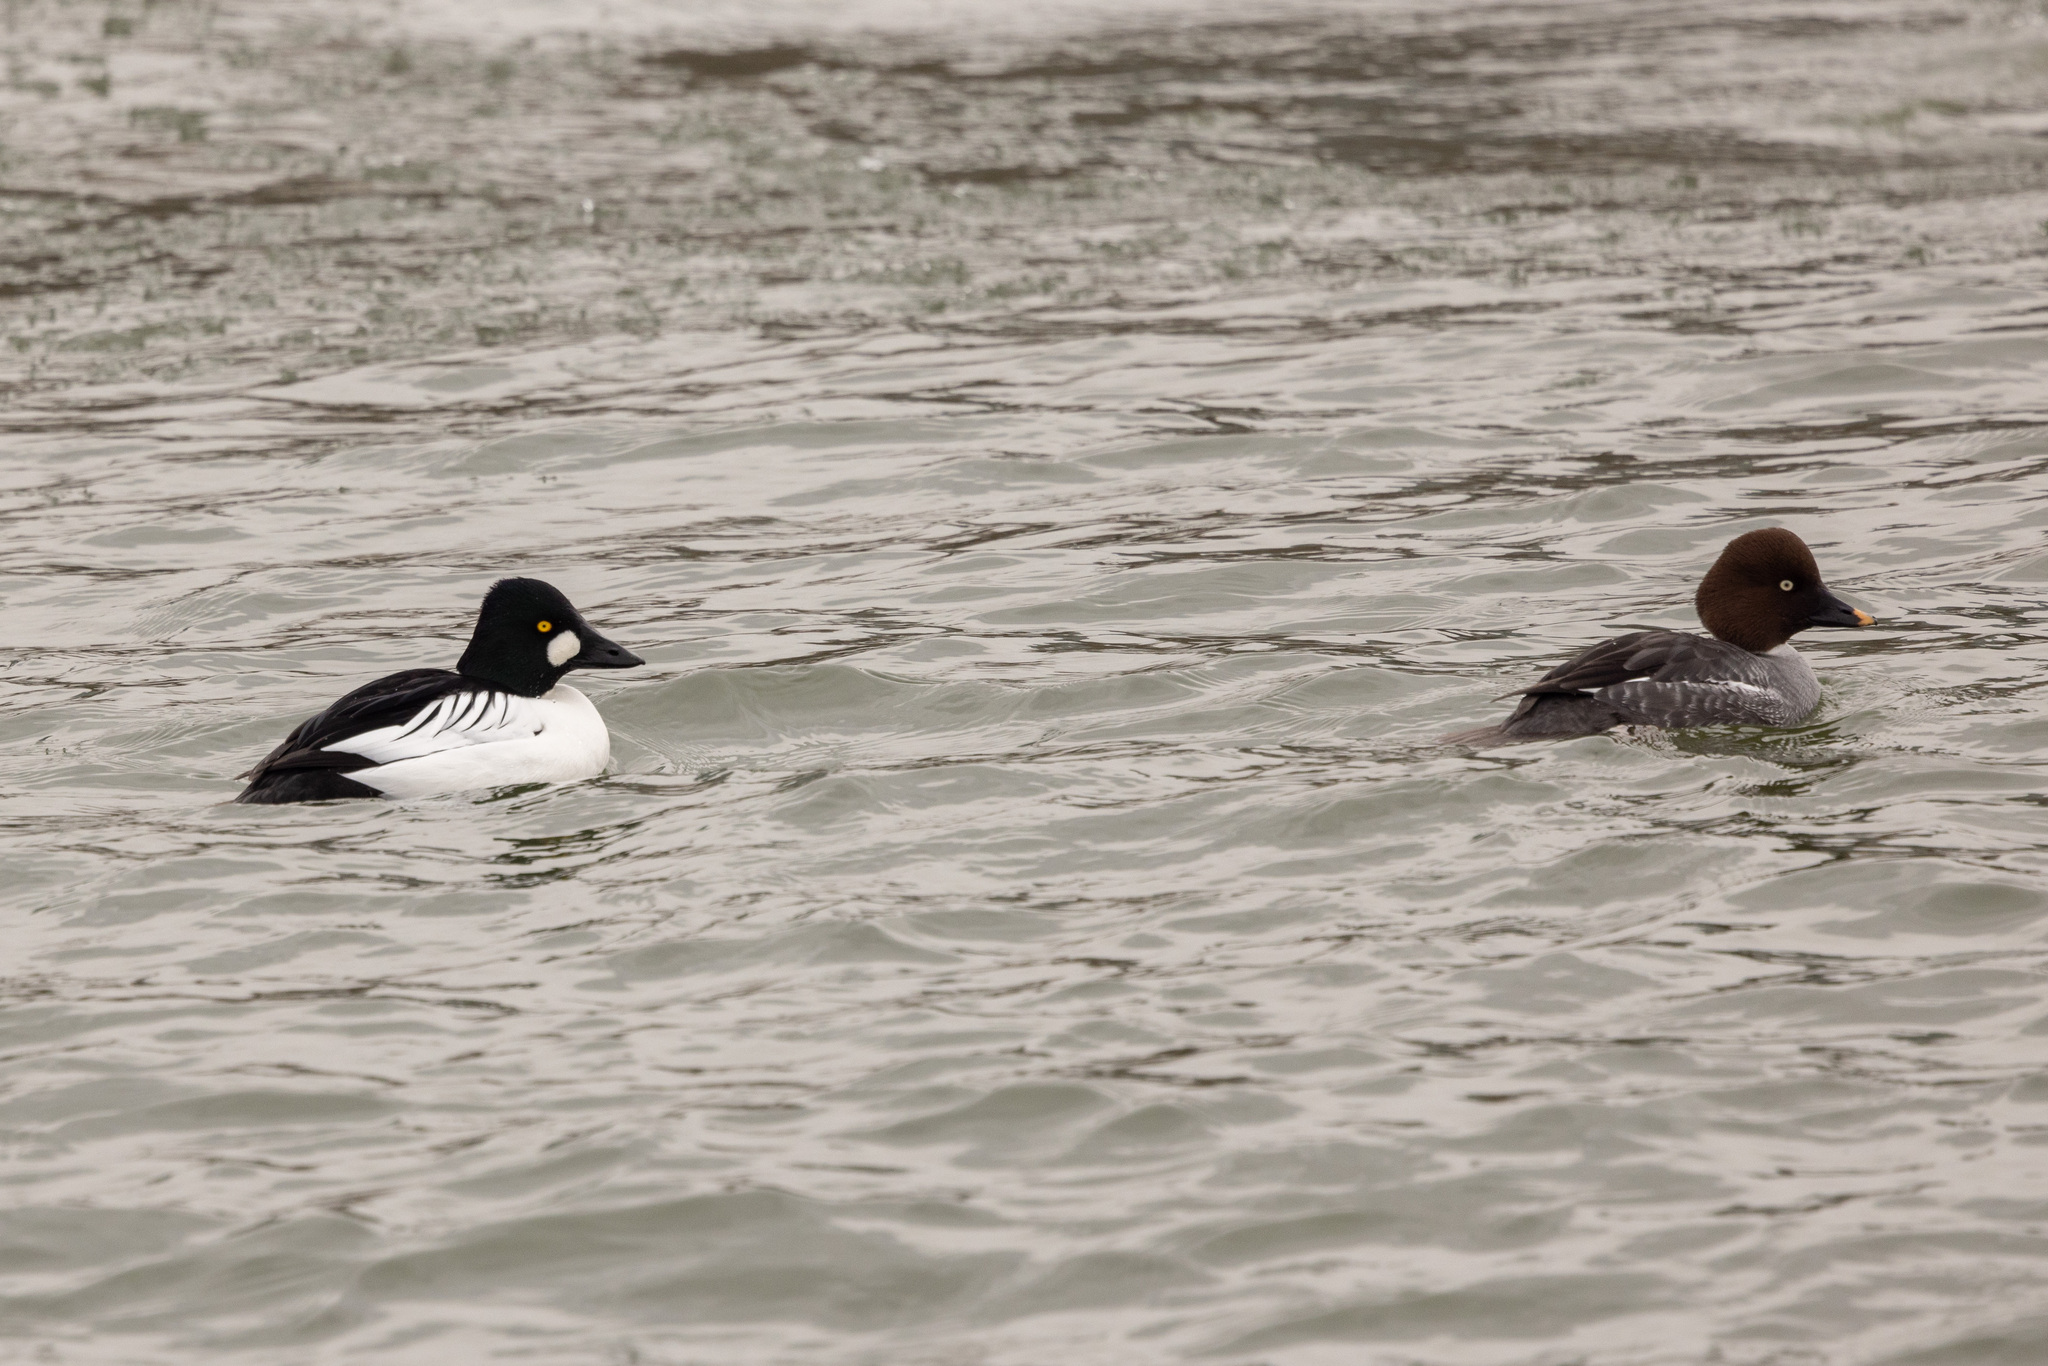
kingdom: Animalia
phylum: Chordata
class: Aves
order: Anseriformes
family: Anatidae
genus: Bucephala
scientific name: Bucephala clangula
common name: Common goldeneye
